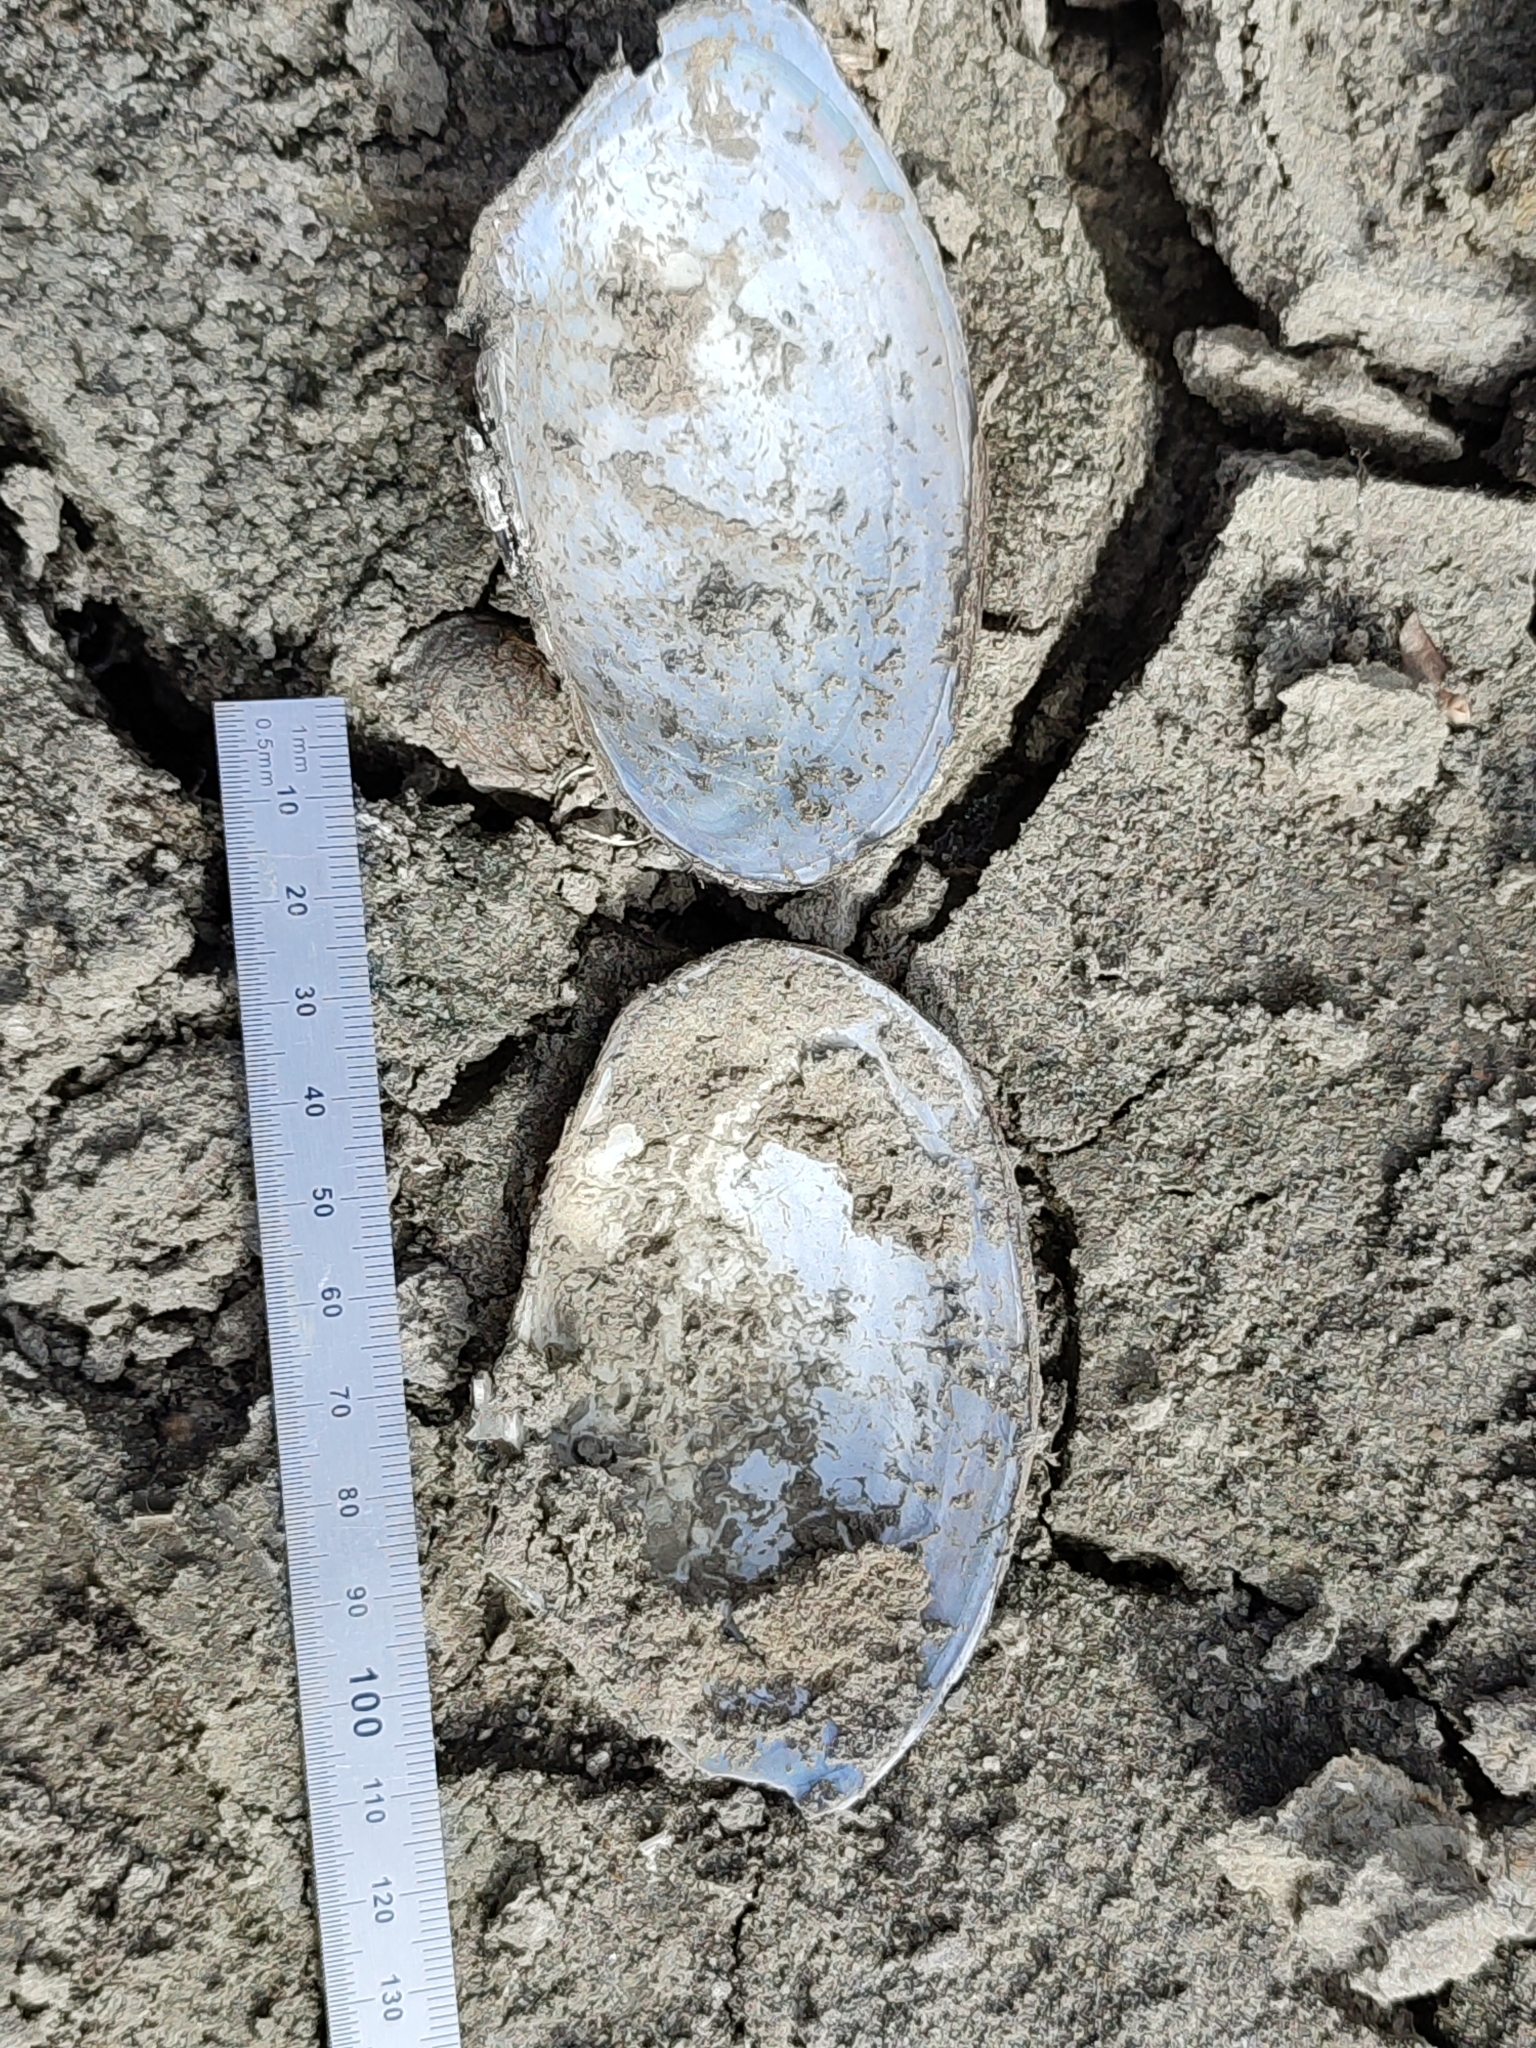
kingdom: Animalia
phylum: Mollusca
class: Bivalvia
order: Unionida
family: Unionidae
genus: Anodonta
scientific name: Anodonta anatina
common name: Duck mussel
